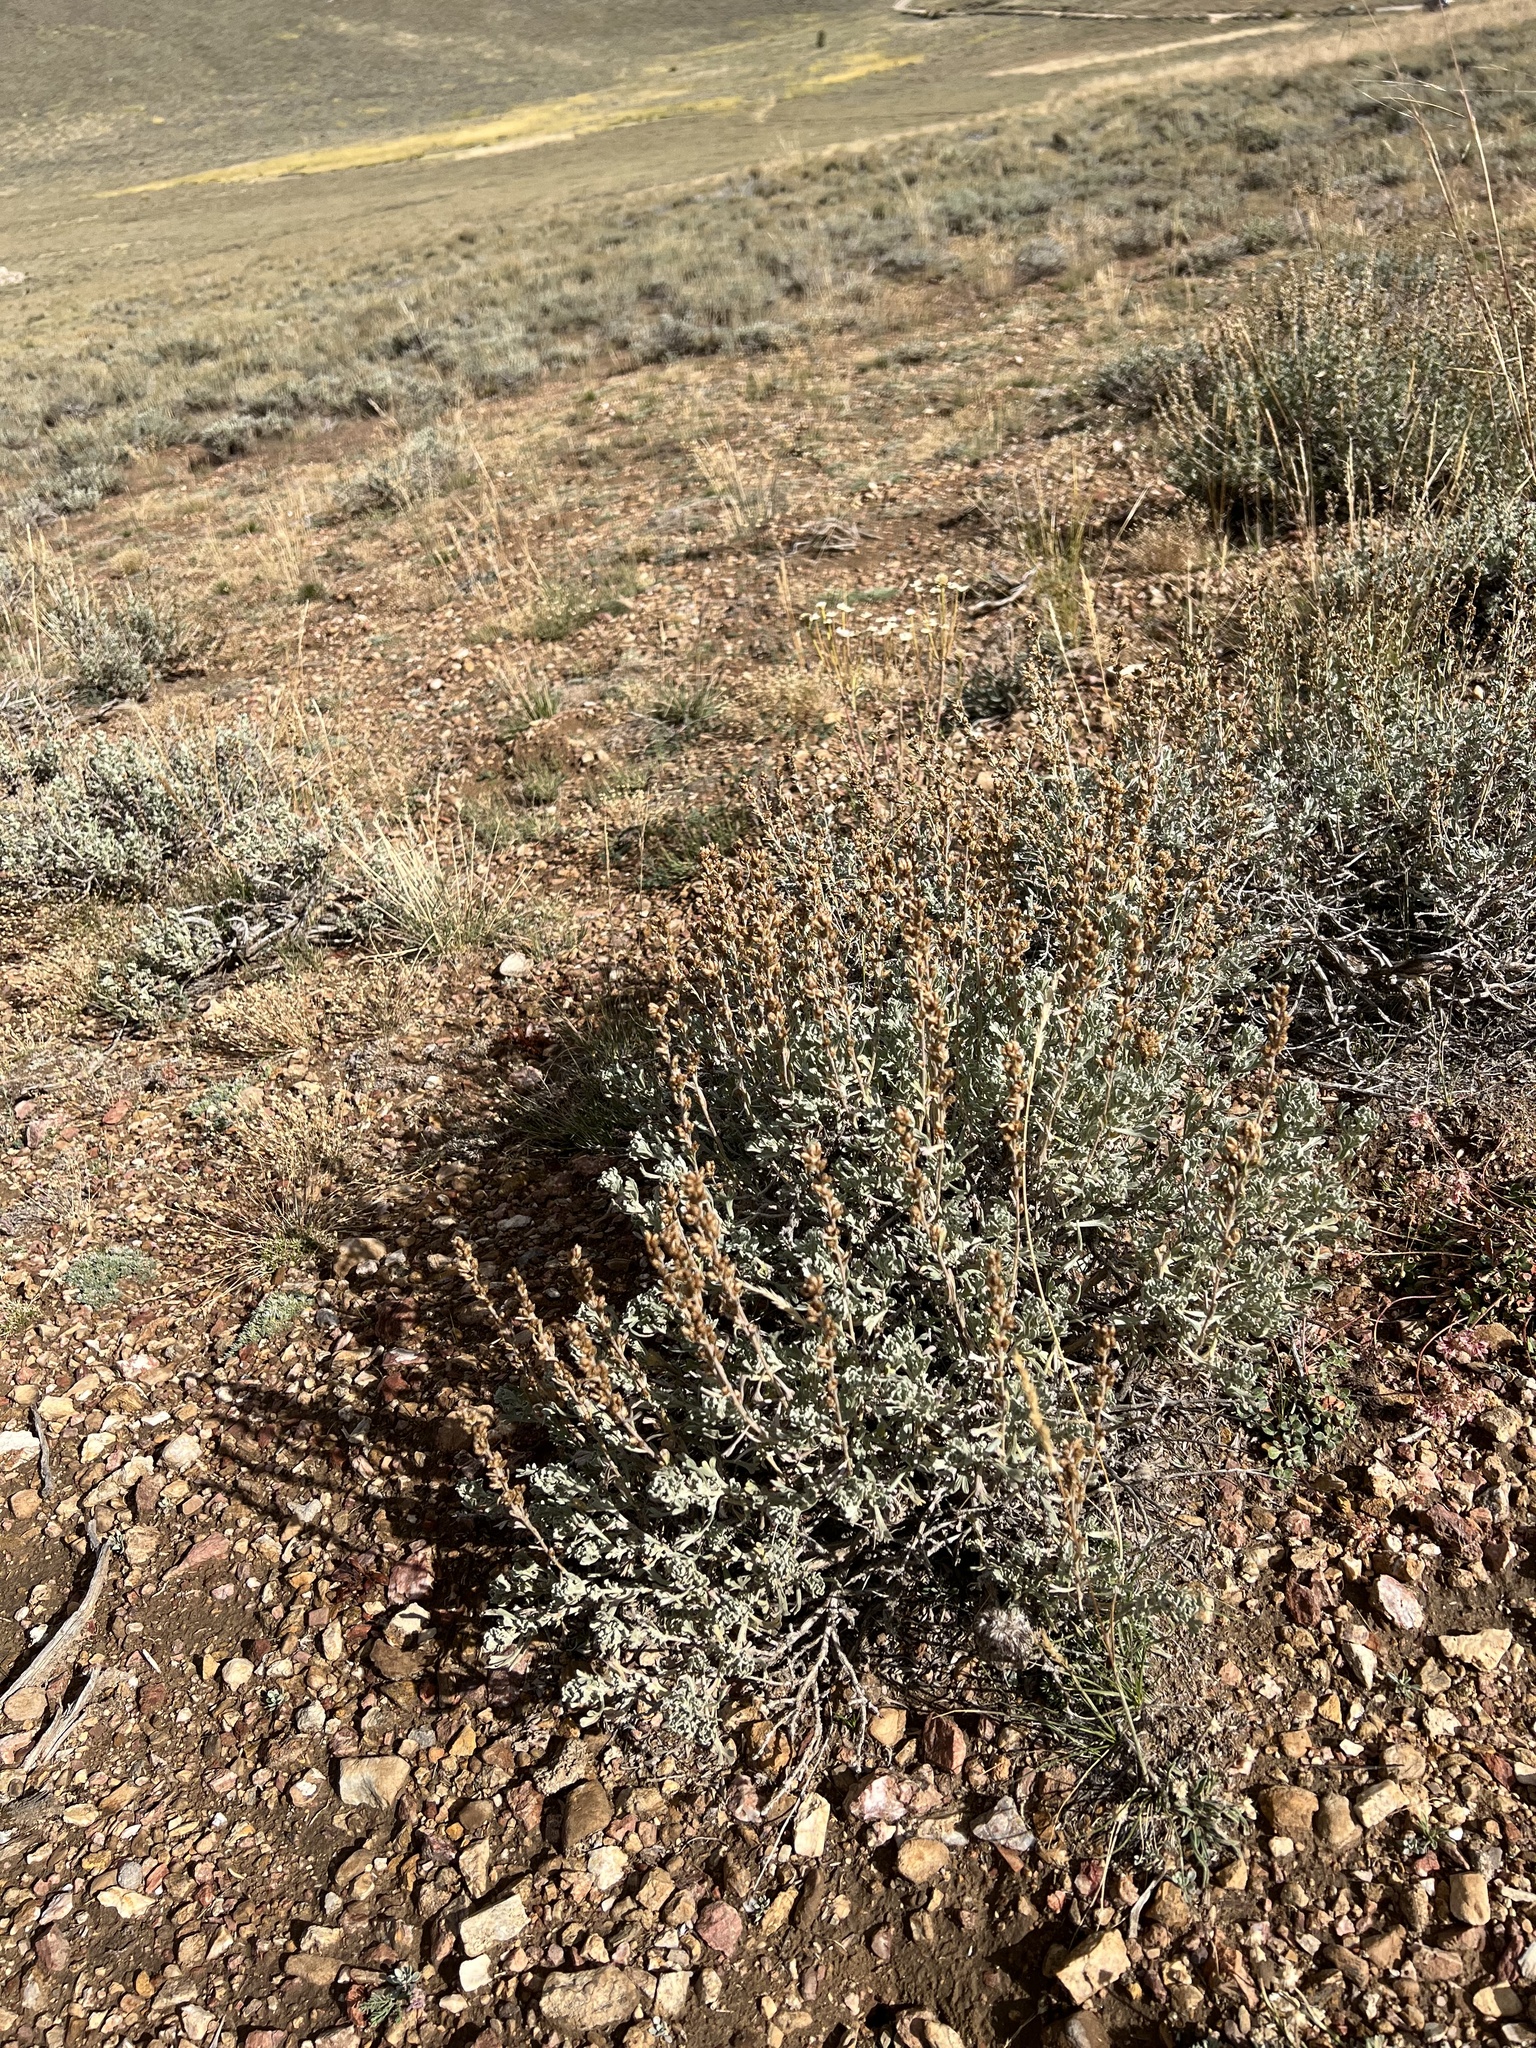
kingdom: Plantae
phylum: Tracheophyta
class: Magnoliopsida
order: Asterales
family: Asteraceae
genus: Artemisia
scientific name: Artemisia rothrockii
